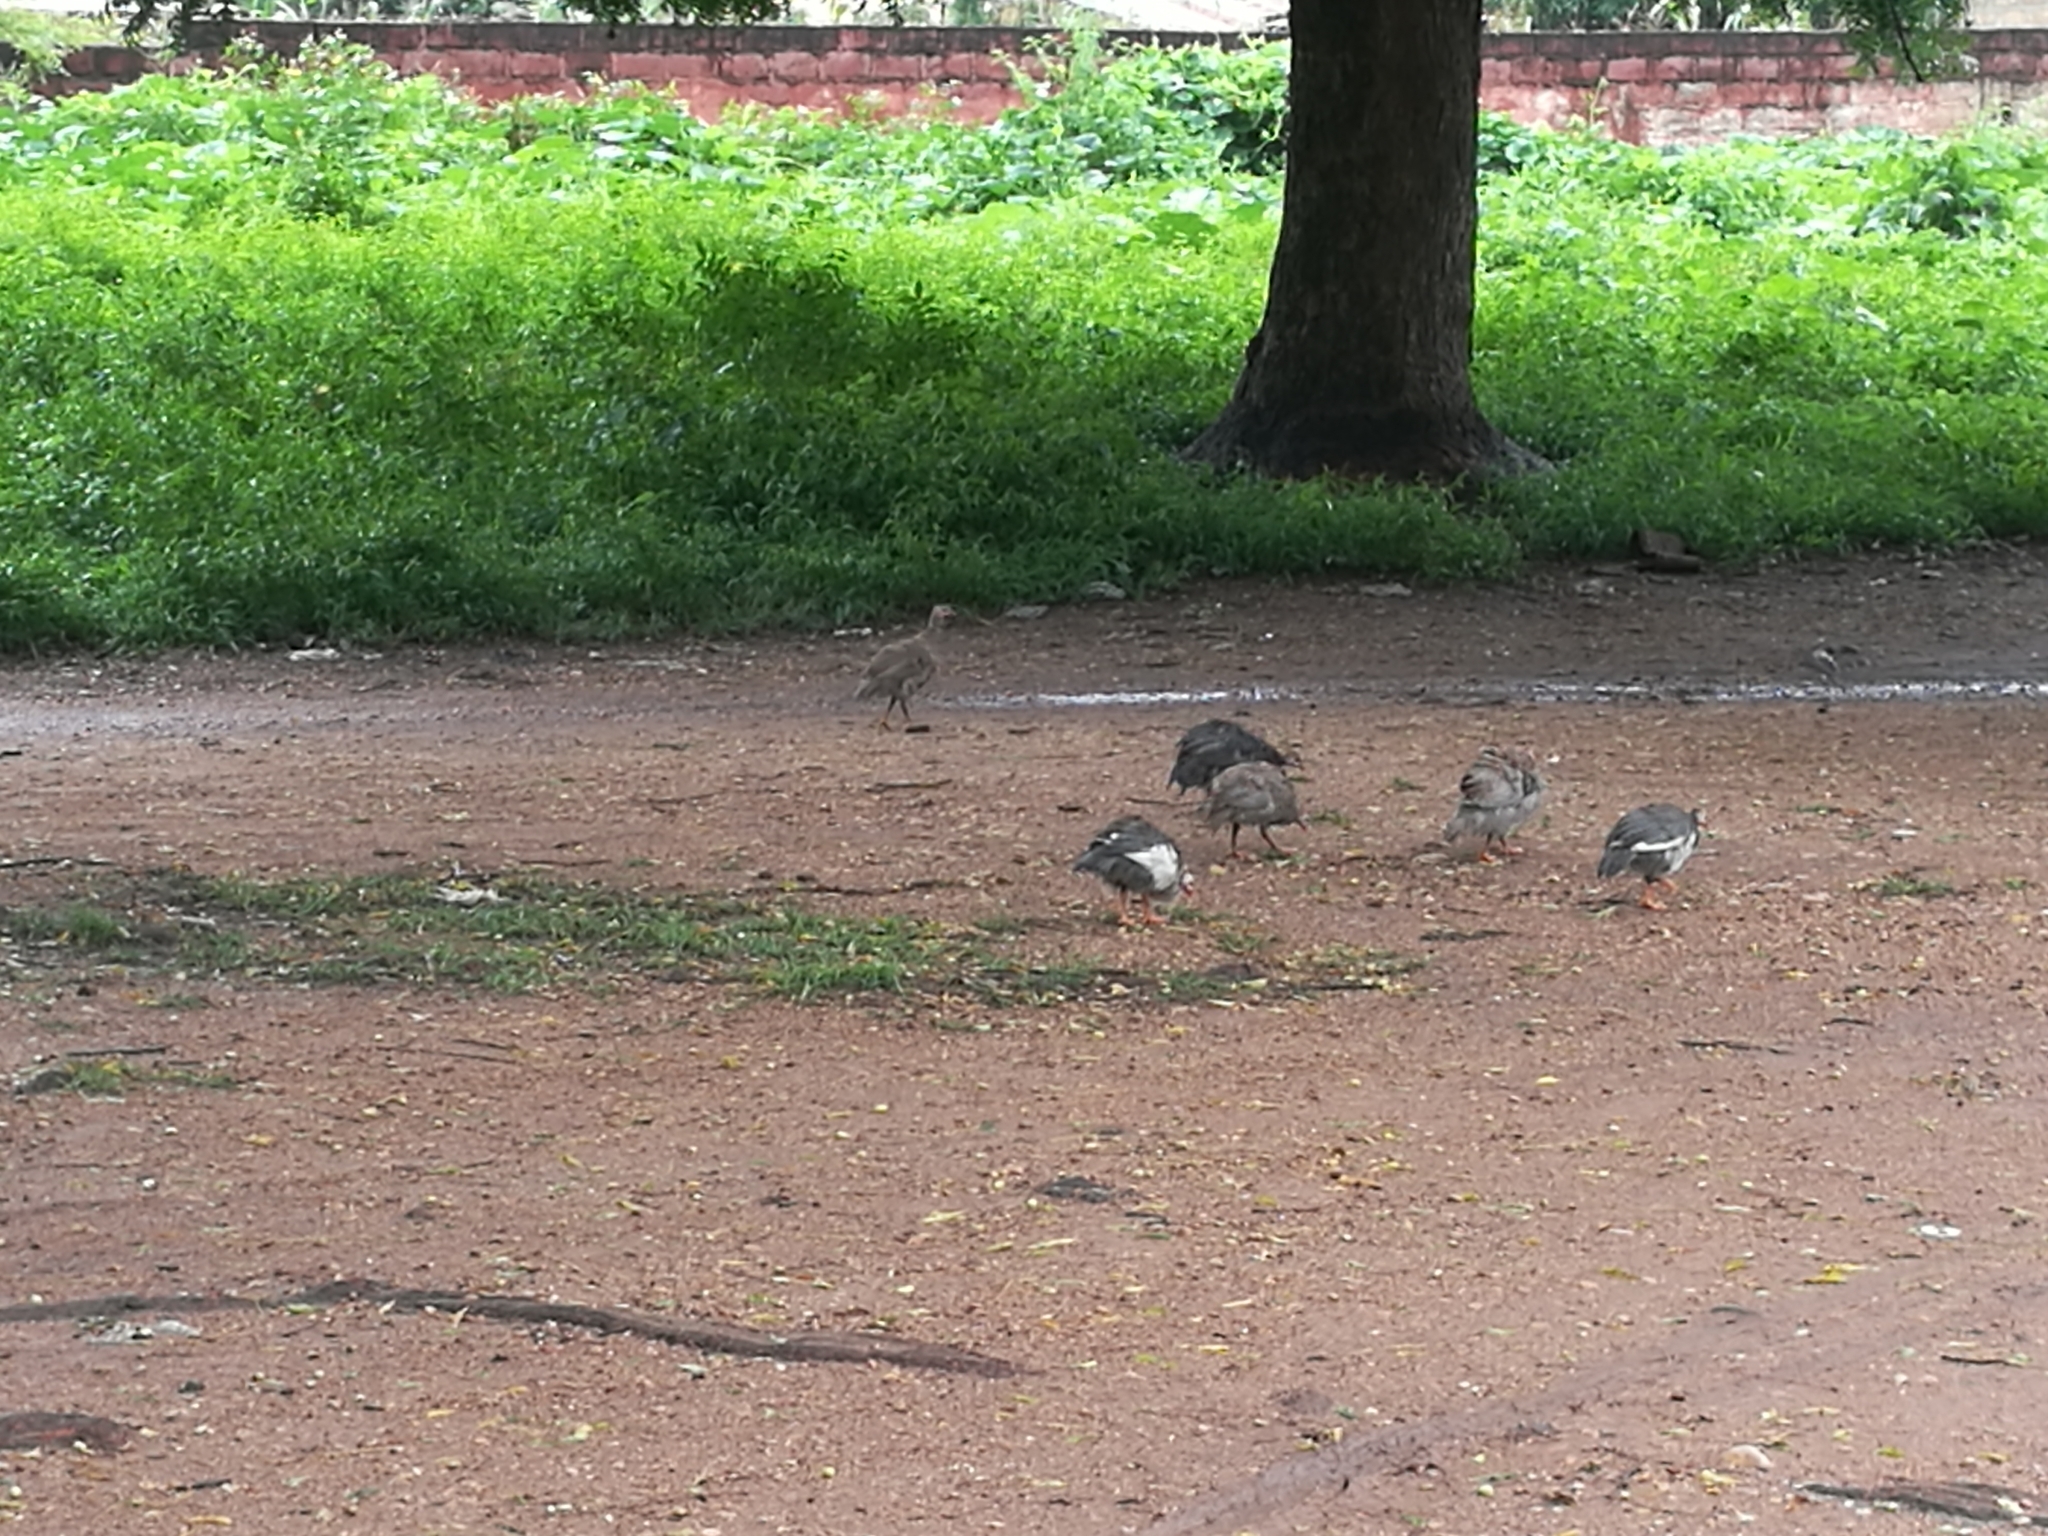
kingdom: Animalia
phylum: Chordata
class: Aves
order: Galliformes
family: Numididae
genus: Numida
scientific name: Numida meleagris
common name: Helmeted guineafowl
